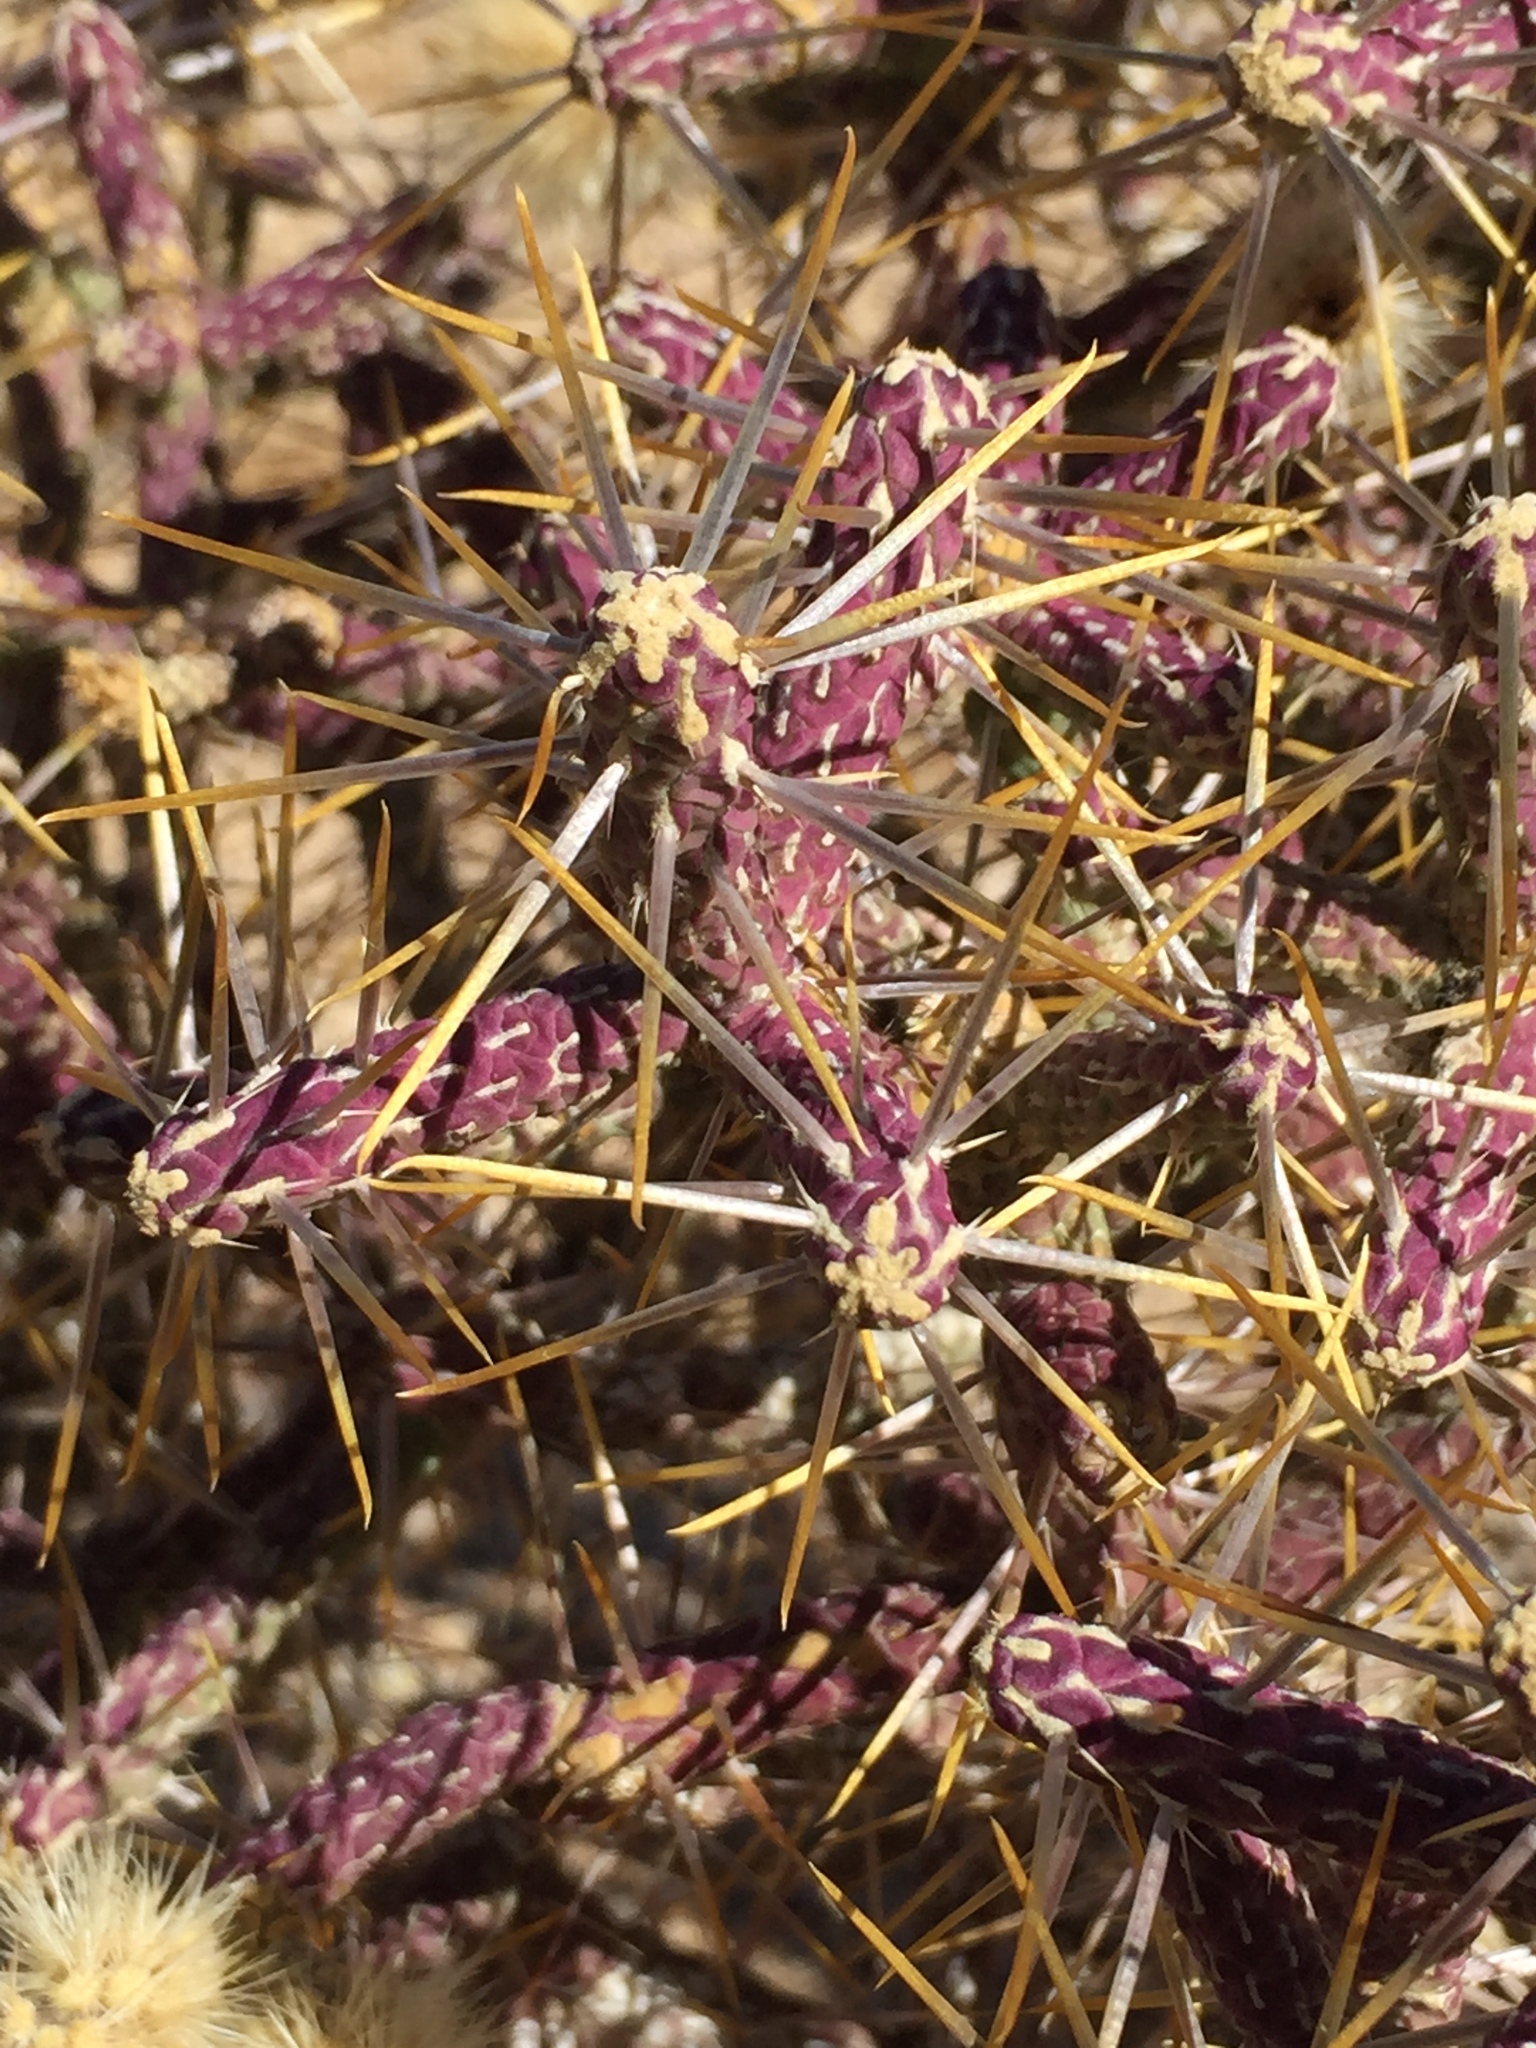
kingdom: Plantae
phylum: Tracheophyta
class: Magnoliopsida
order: Caryophyllales
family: Cactaceae
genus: Cylindropuntia
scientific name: Cylindropuntia ramosissima
